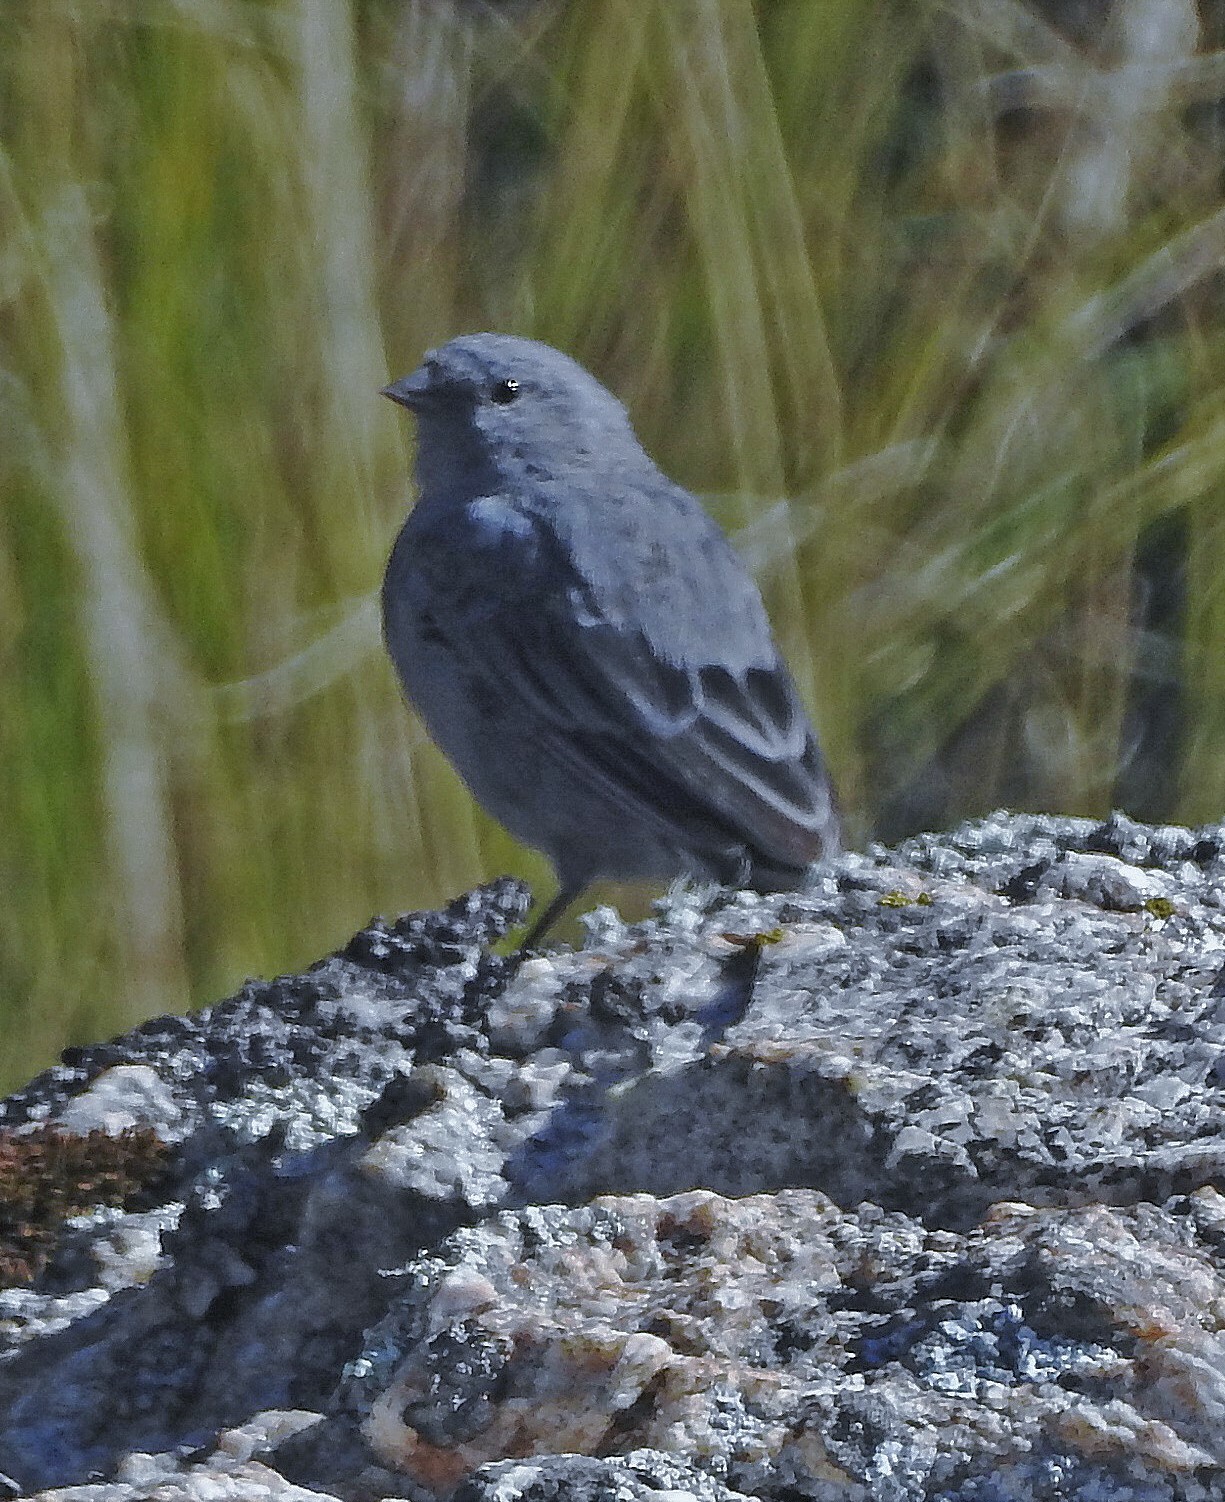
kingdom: Animalia
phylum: Chordata
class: Aves
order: Passeriformes
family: Thraupidae
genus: Geospizopsis
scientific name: Geospizopsis unicolor
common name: Plumbeous sierra-finch
